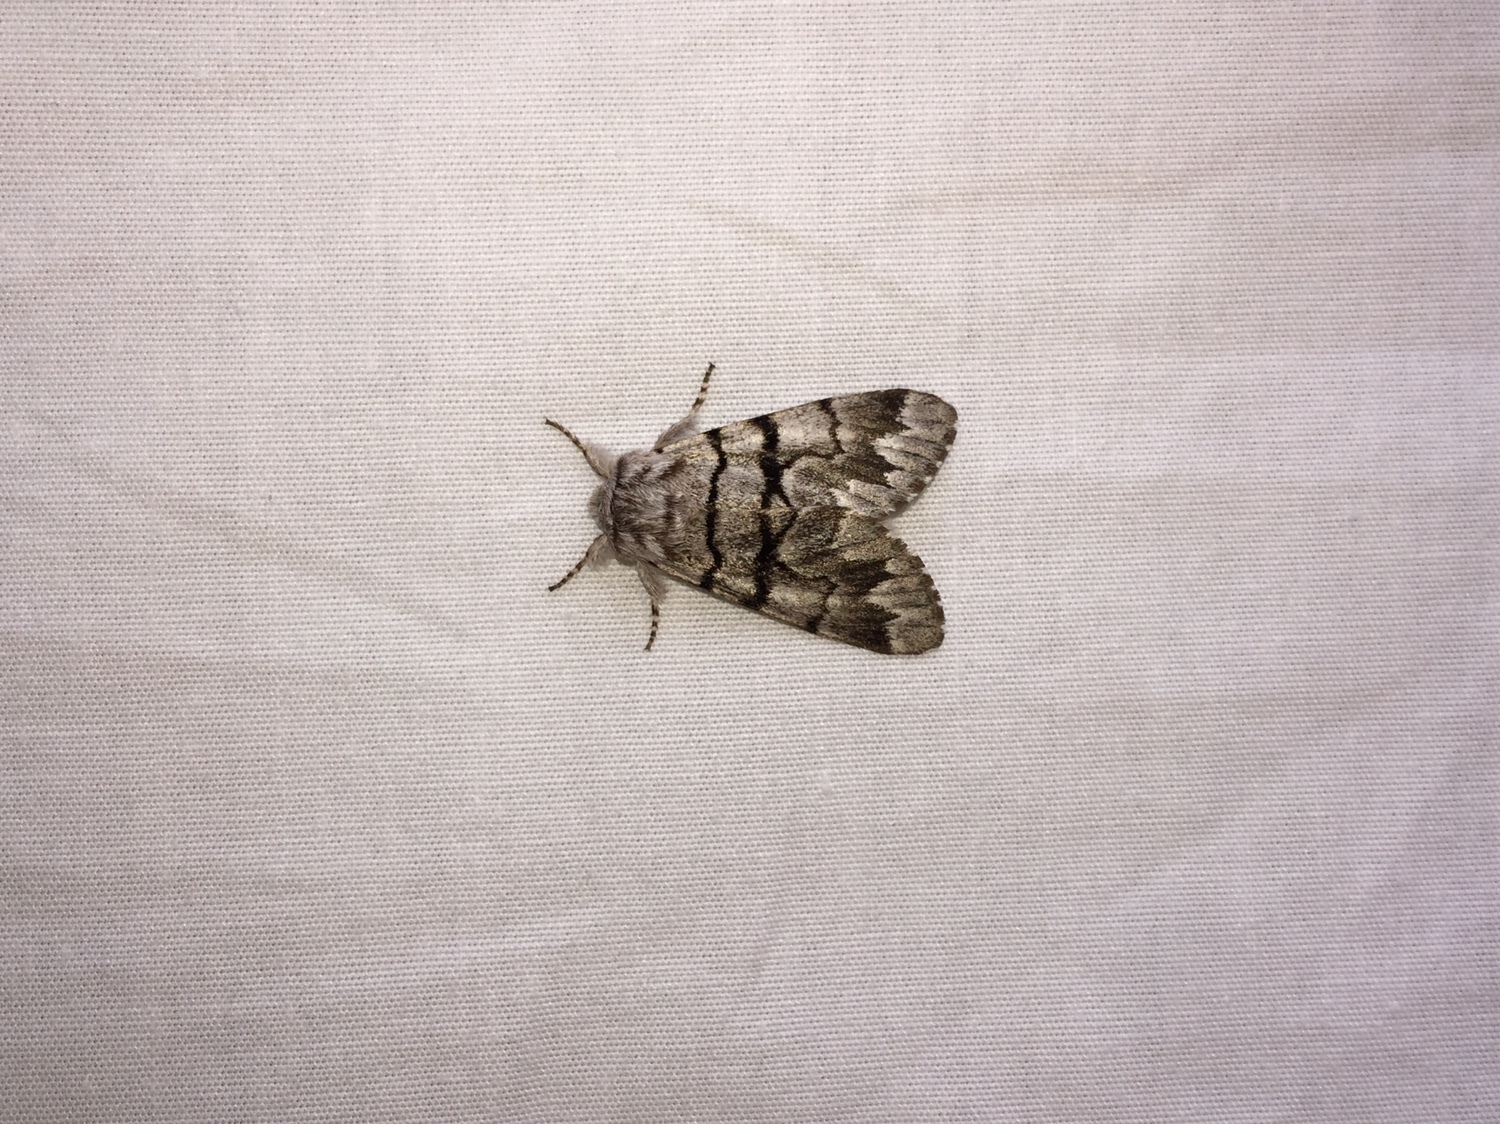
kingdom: Animalia
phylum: Arthropoda
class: Insecta
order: Lepidoptera
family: Noctuidae
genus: Panthea
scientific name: Panthea furcilla
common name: Eastern panthea moth
